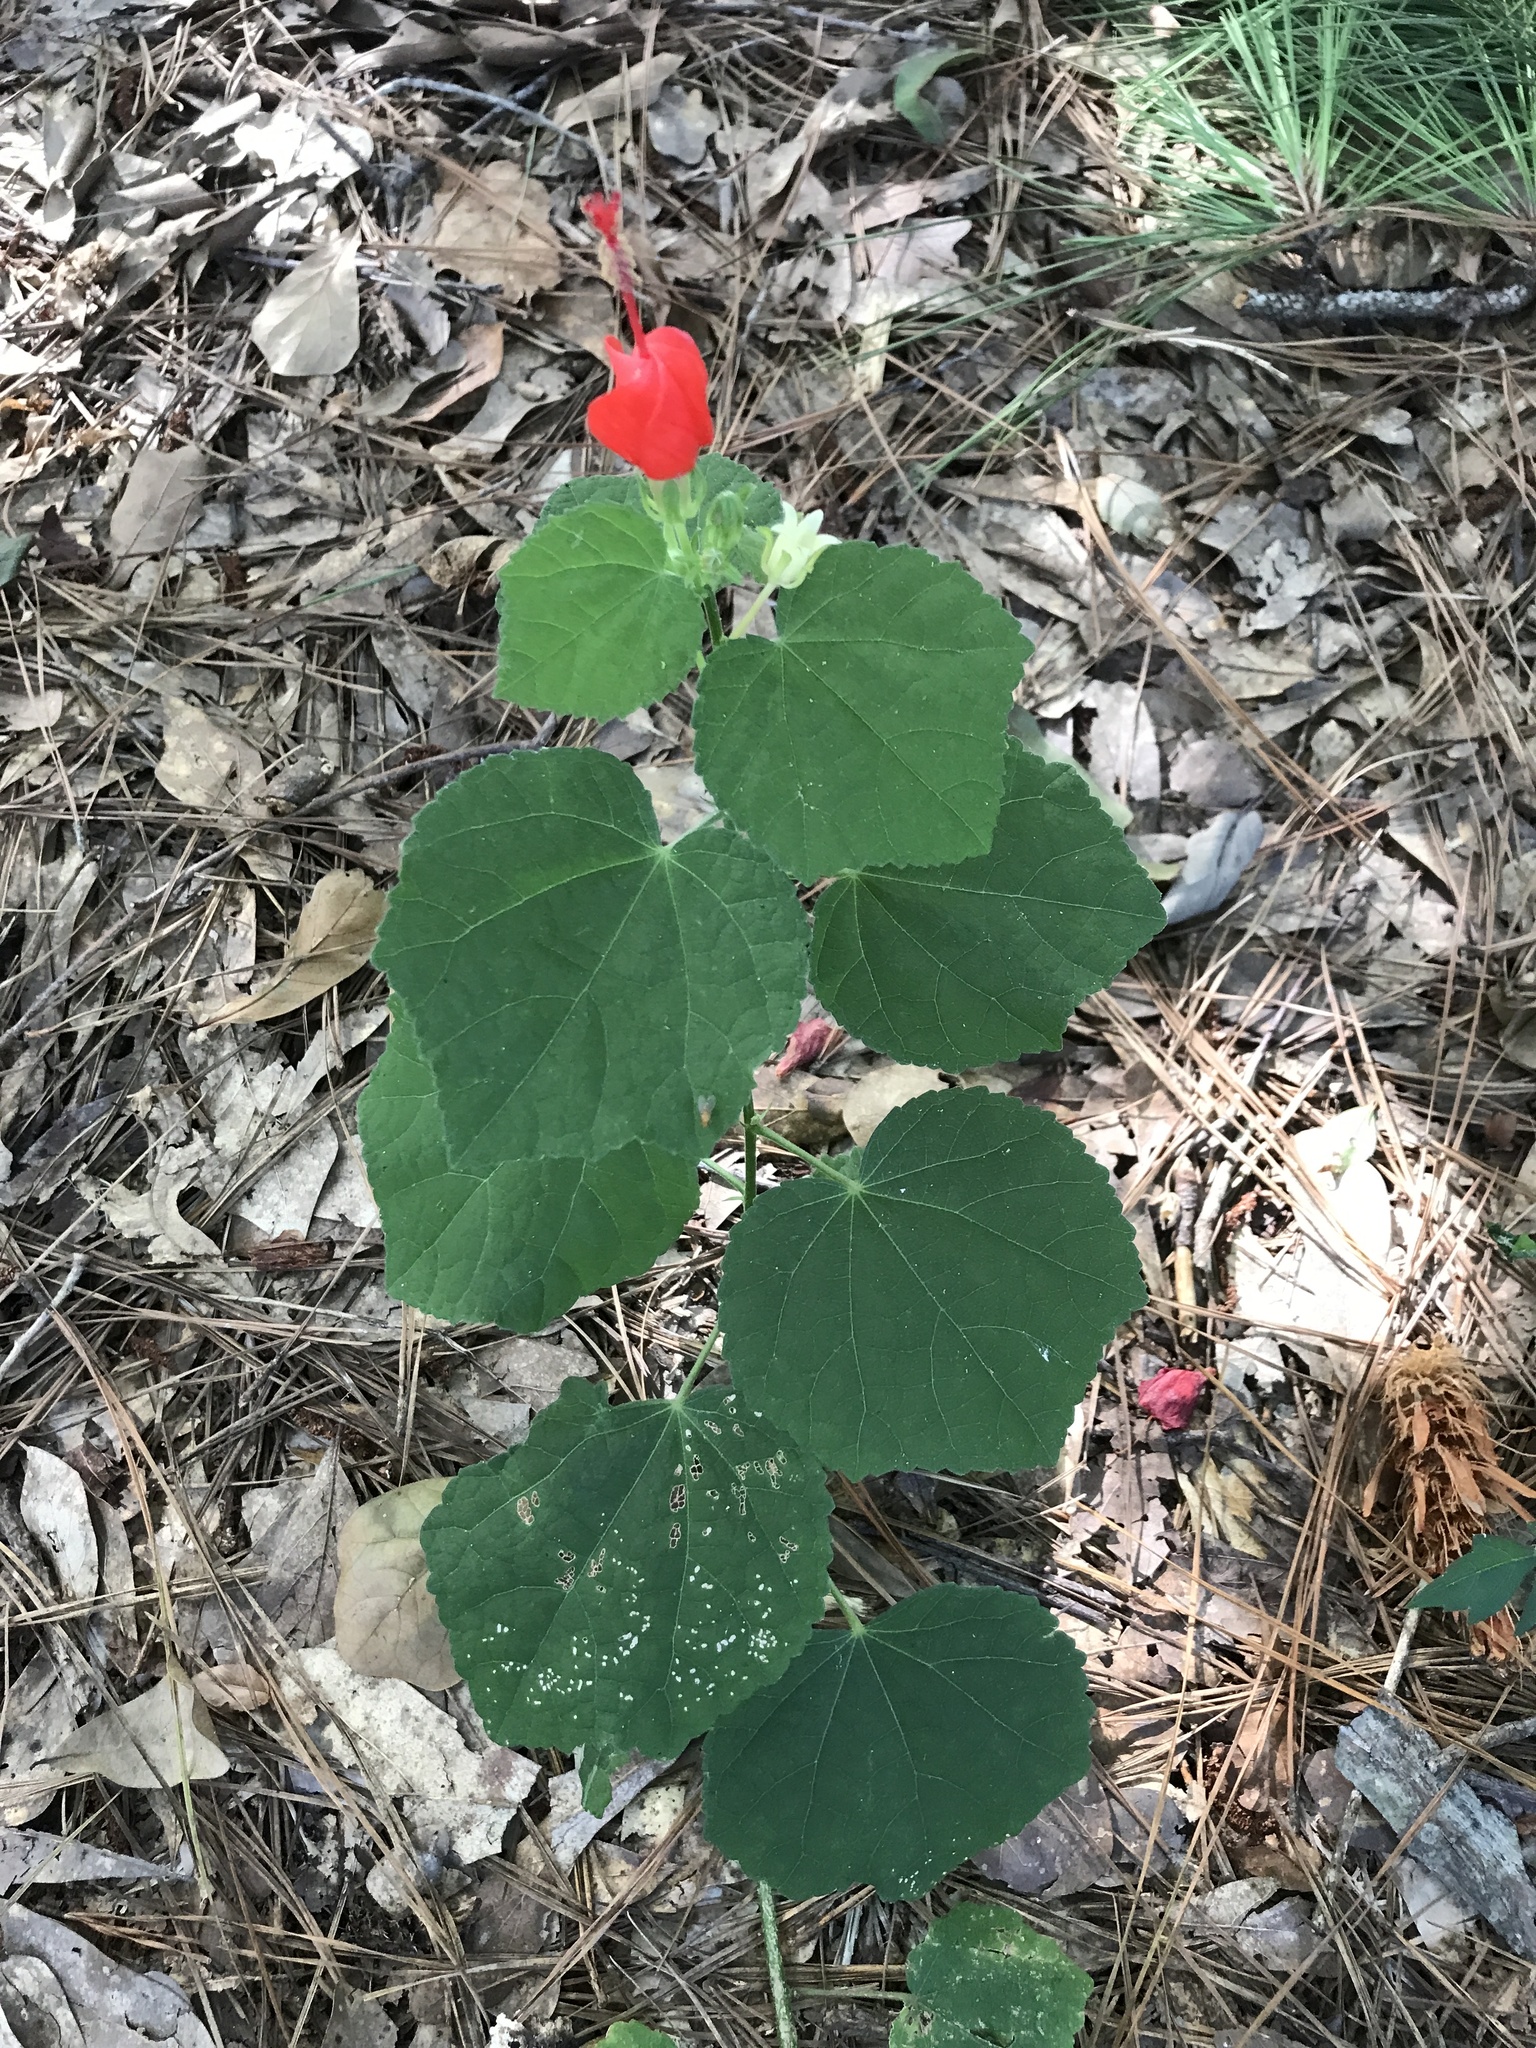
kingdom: Plantae
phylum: Tracheophyta
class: Magnoliopsida
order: Malvales
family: Malvaceae
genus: Malvaviscus
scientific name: Malvaviscus arboreus
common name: Wax mallow
